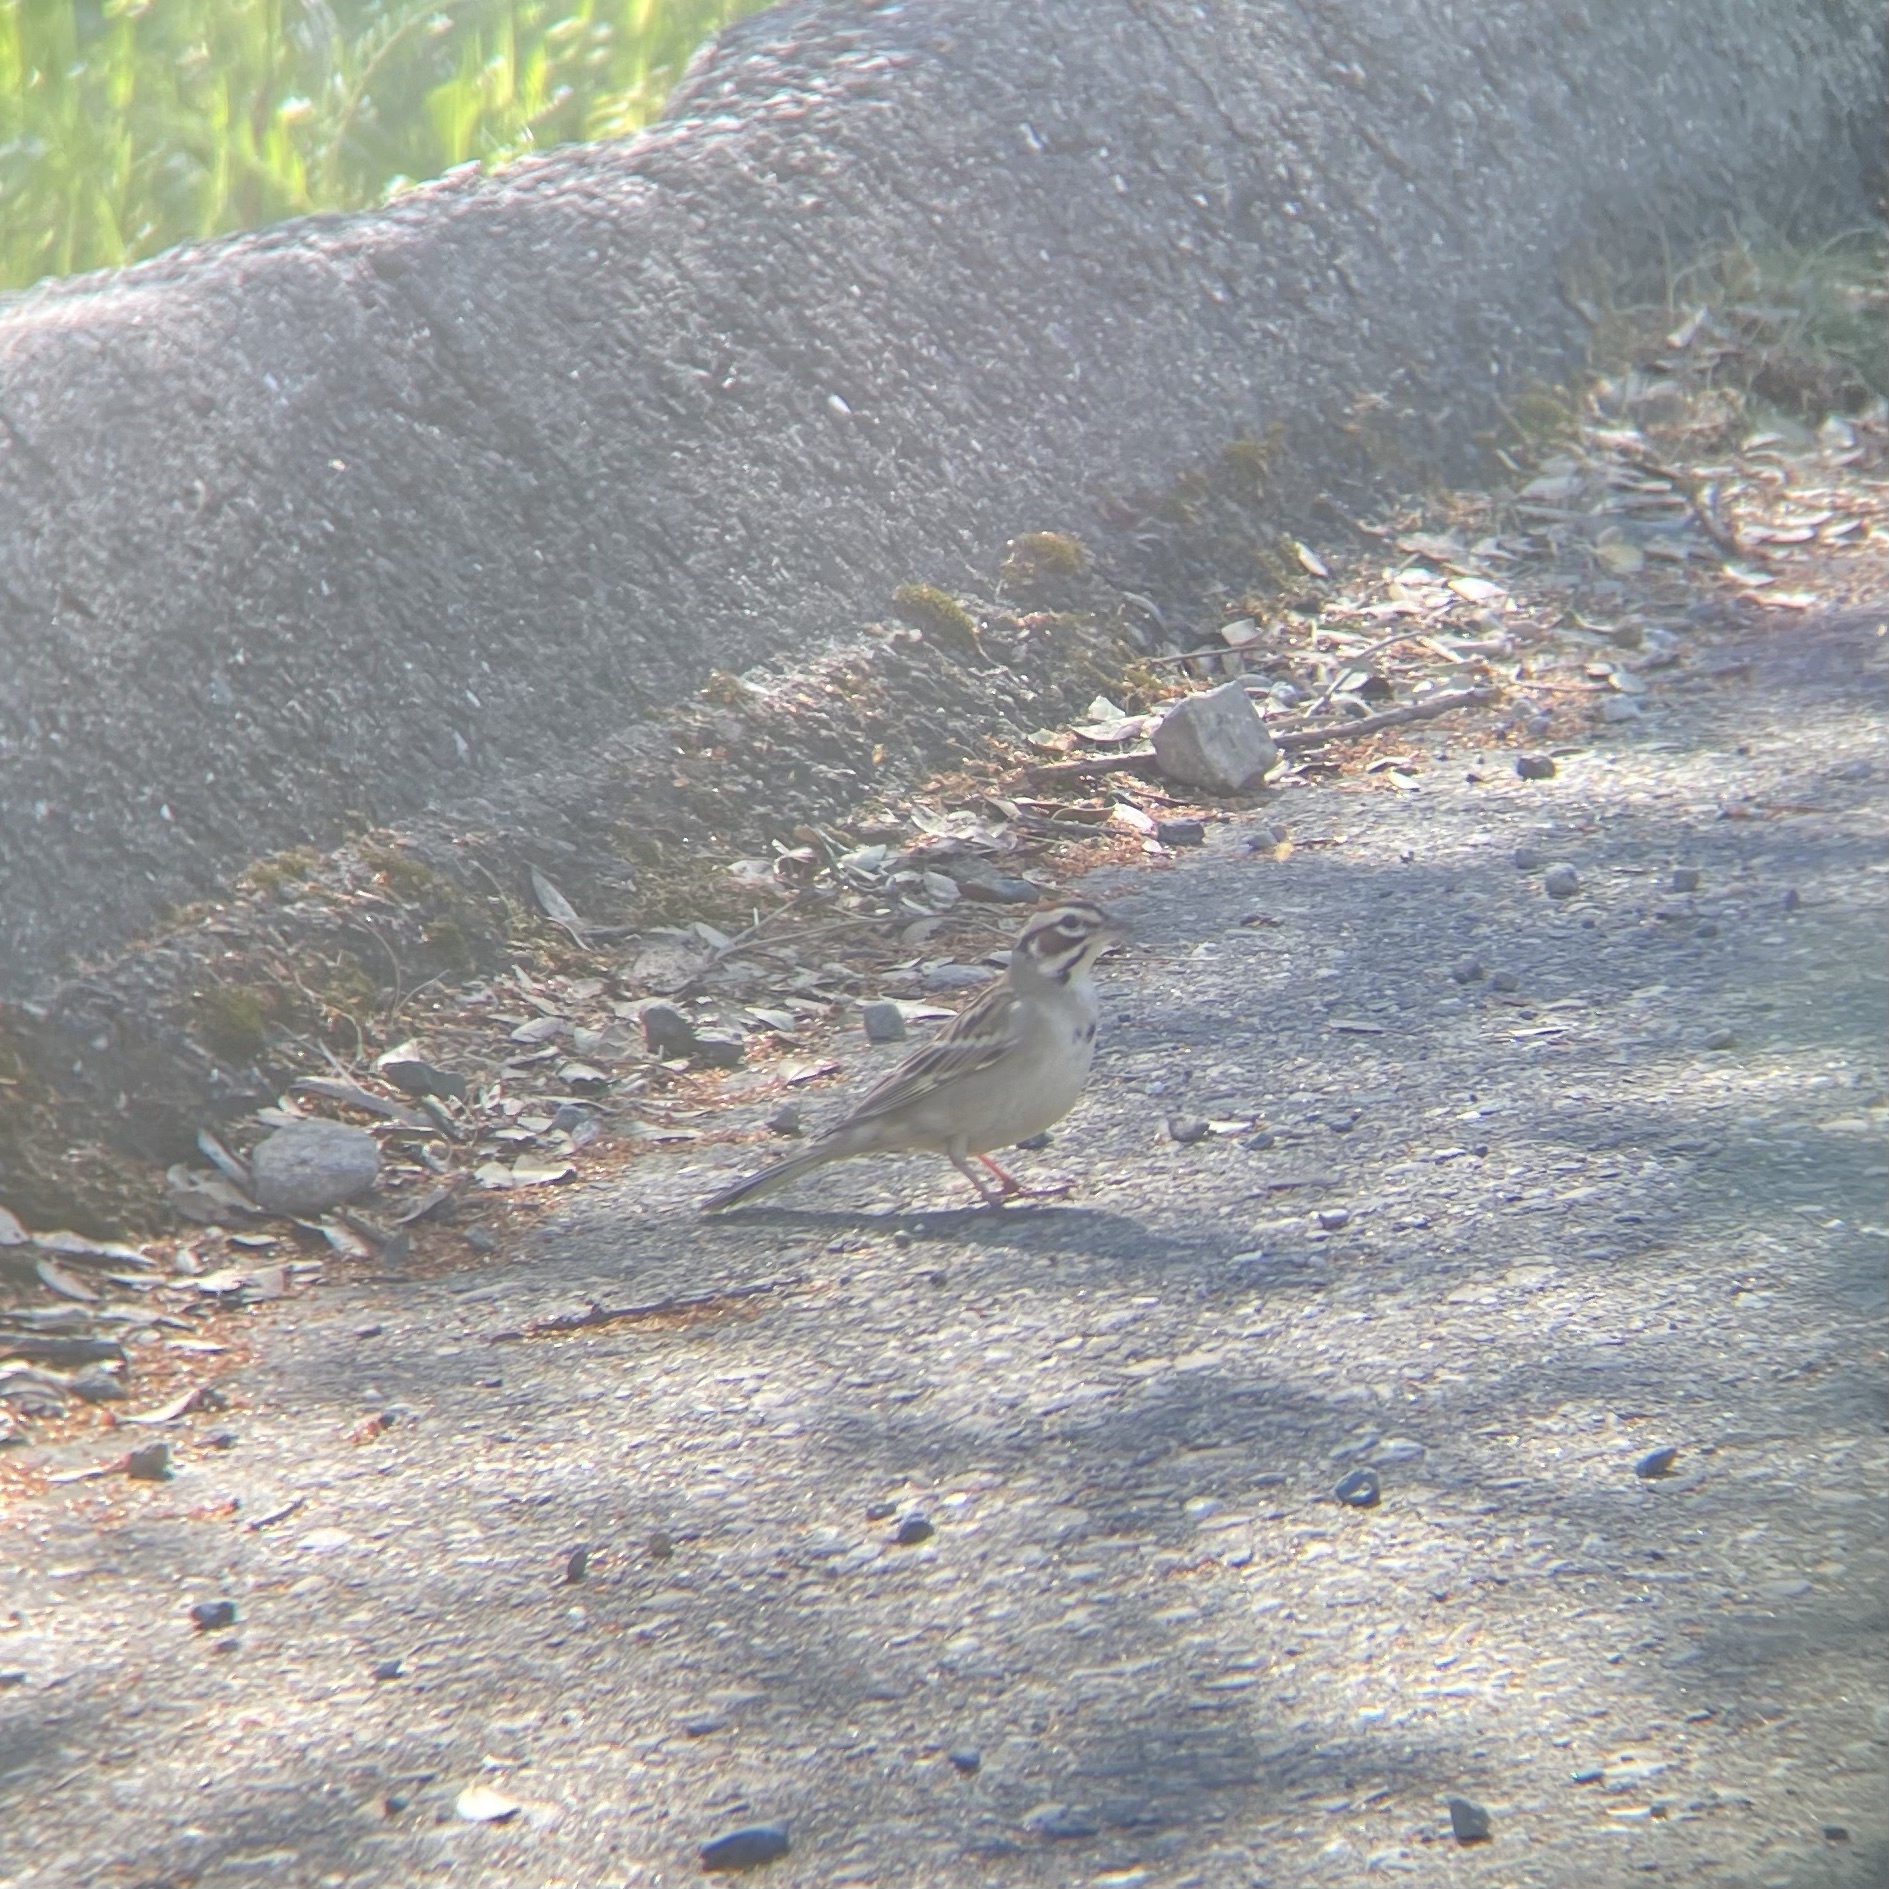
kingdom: Animalia
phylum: Chordata
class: Aves
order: Passeriformes
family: Passerellidae
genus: Chondestes
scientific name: Chondestes grammacus
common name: Lark sparrow
